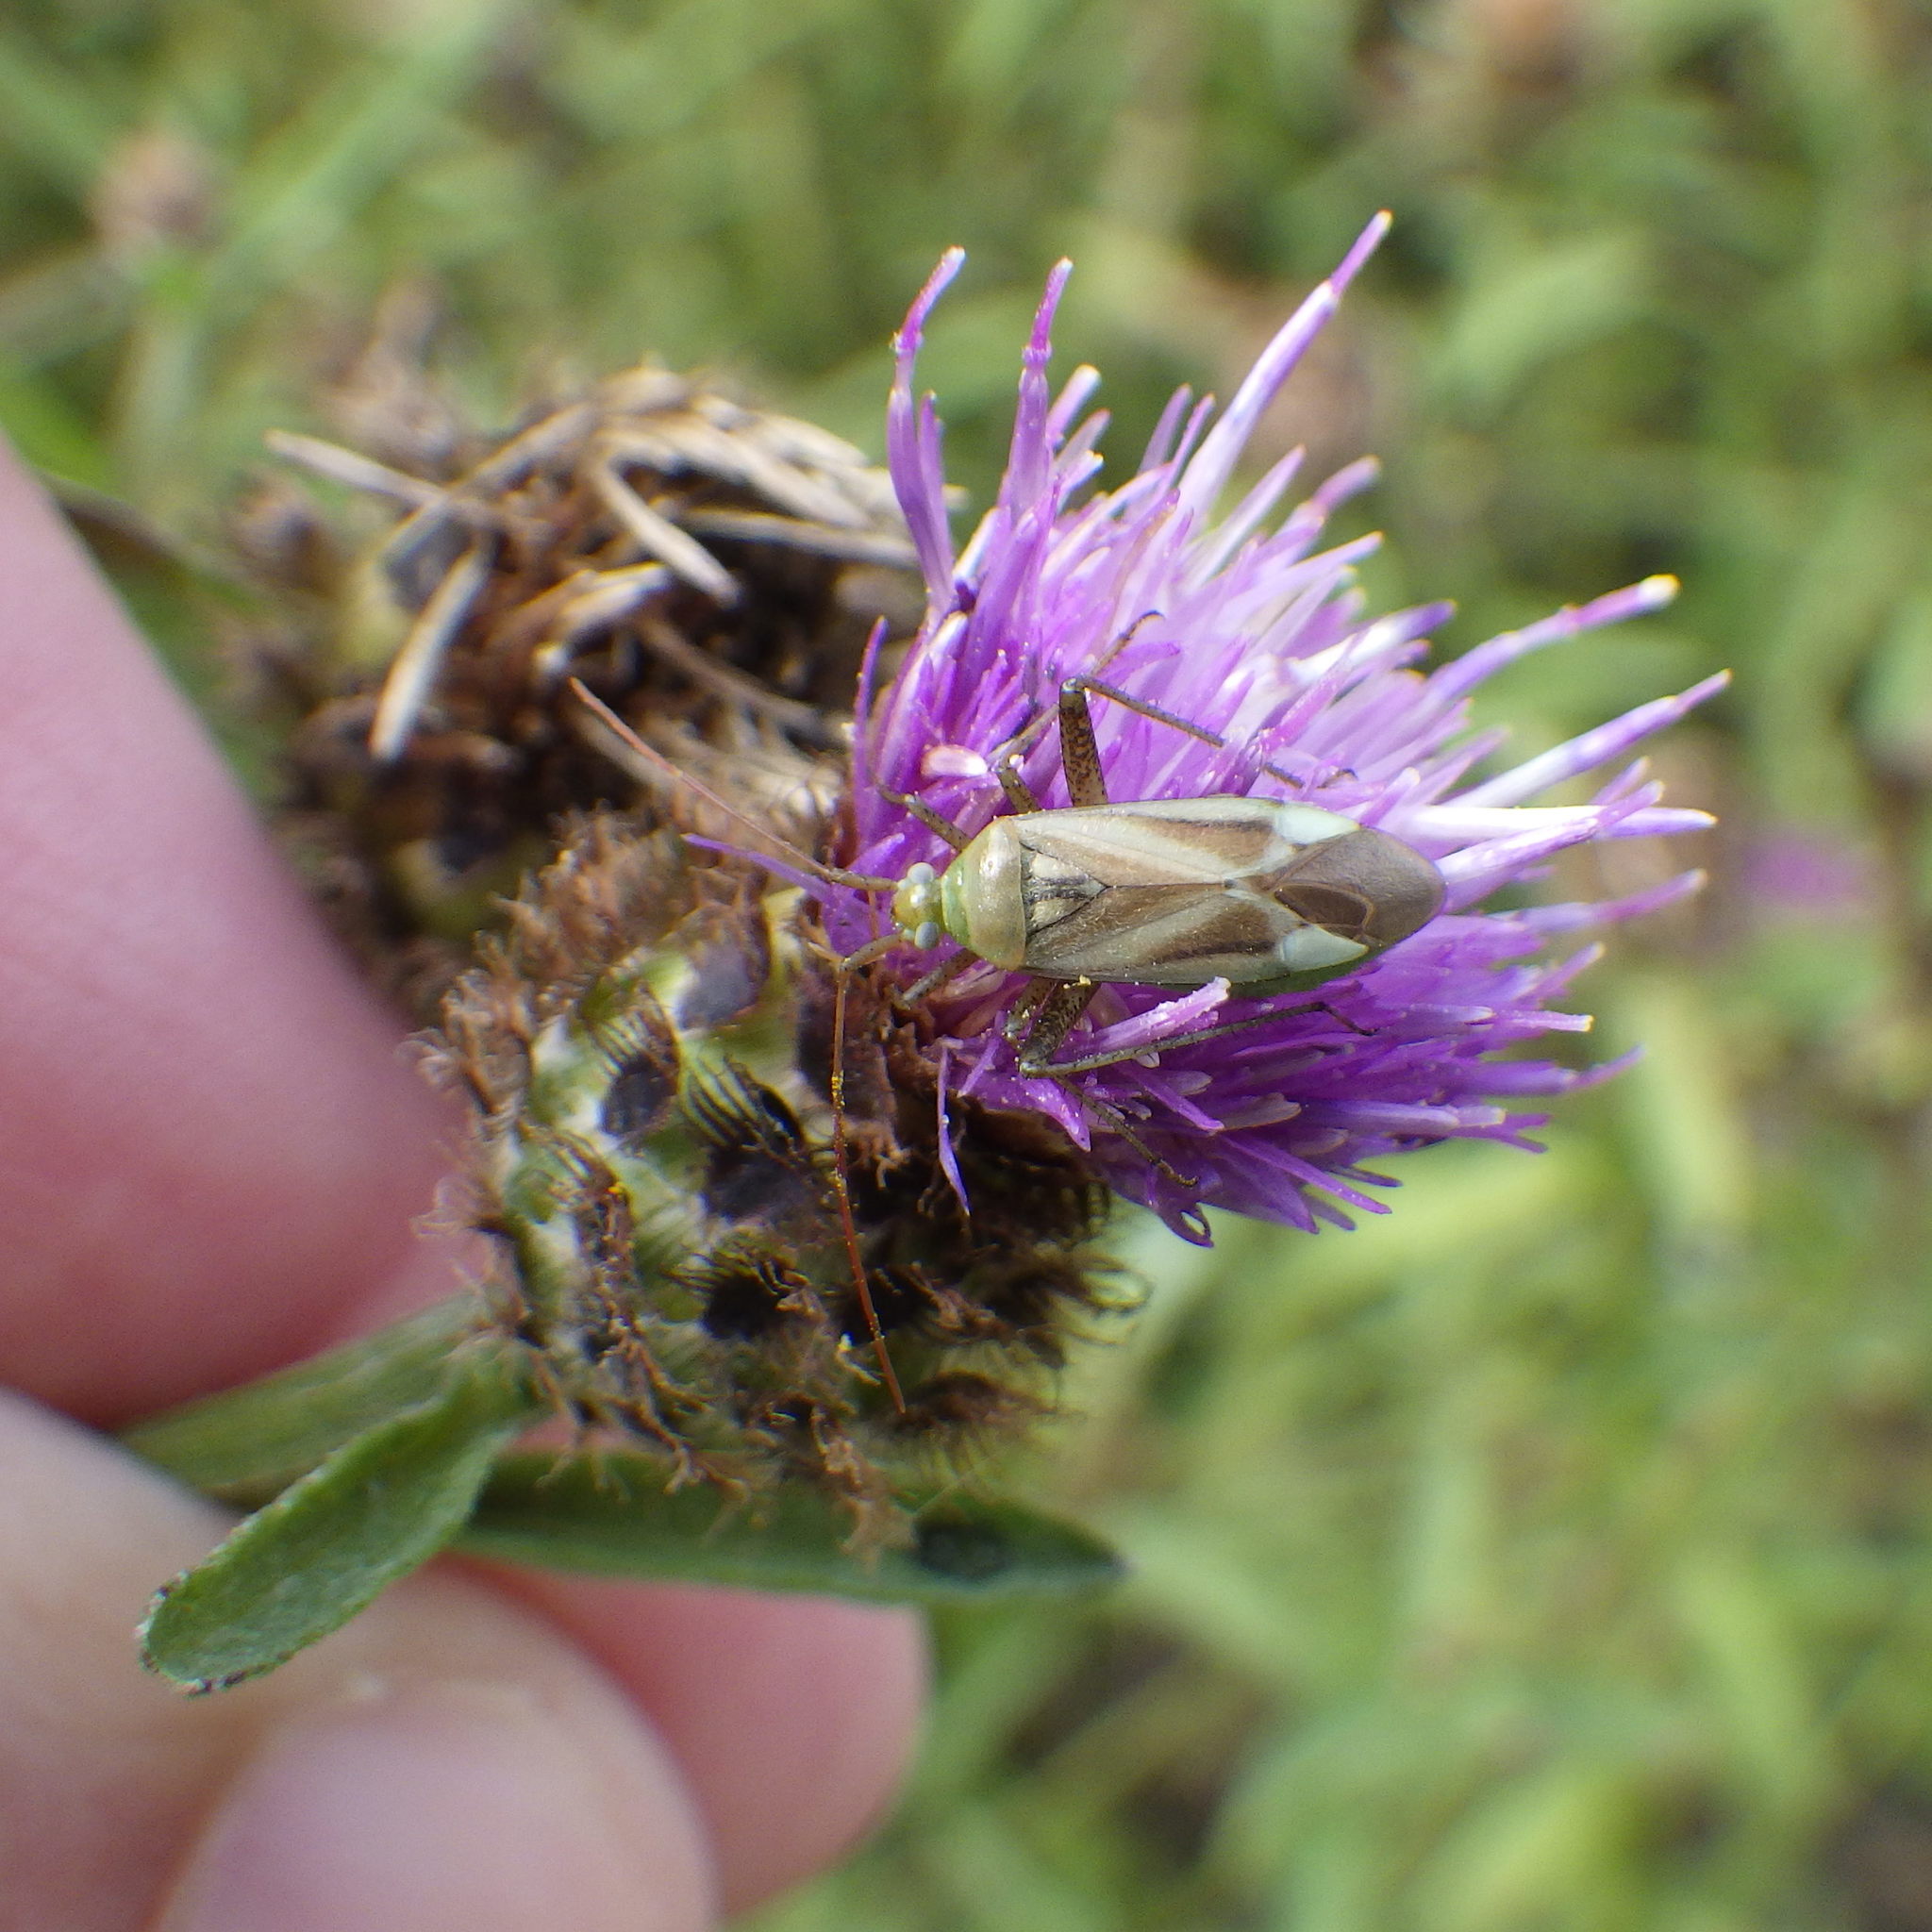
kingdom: Animalia
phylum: Arthropoda
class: Insecta
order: Hemiptera
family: Miridae
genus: Adelphocoris
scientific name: Adelphocoris lineolatus
